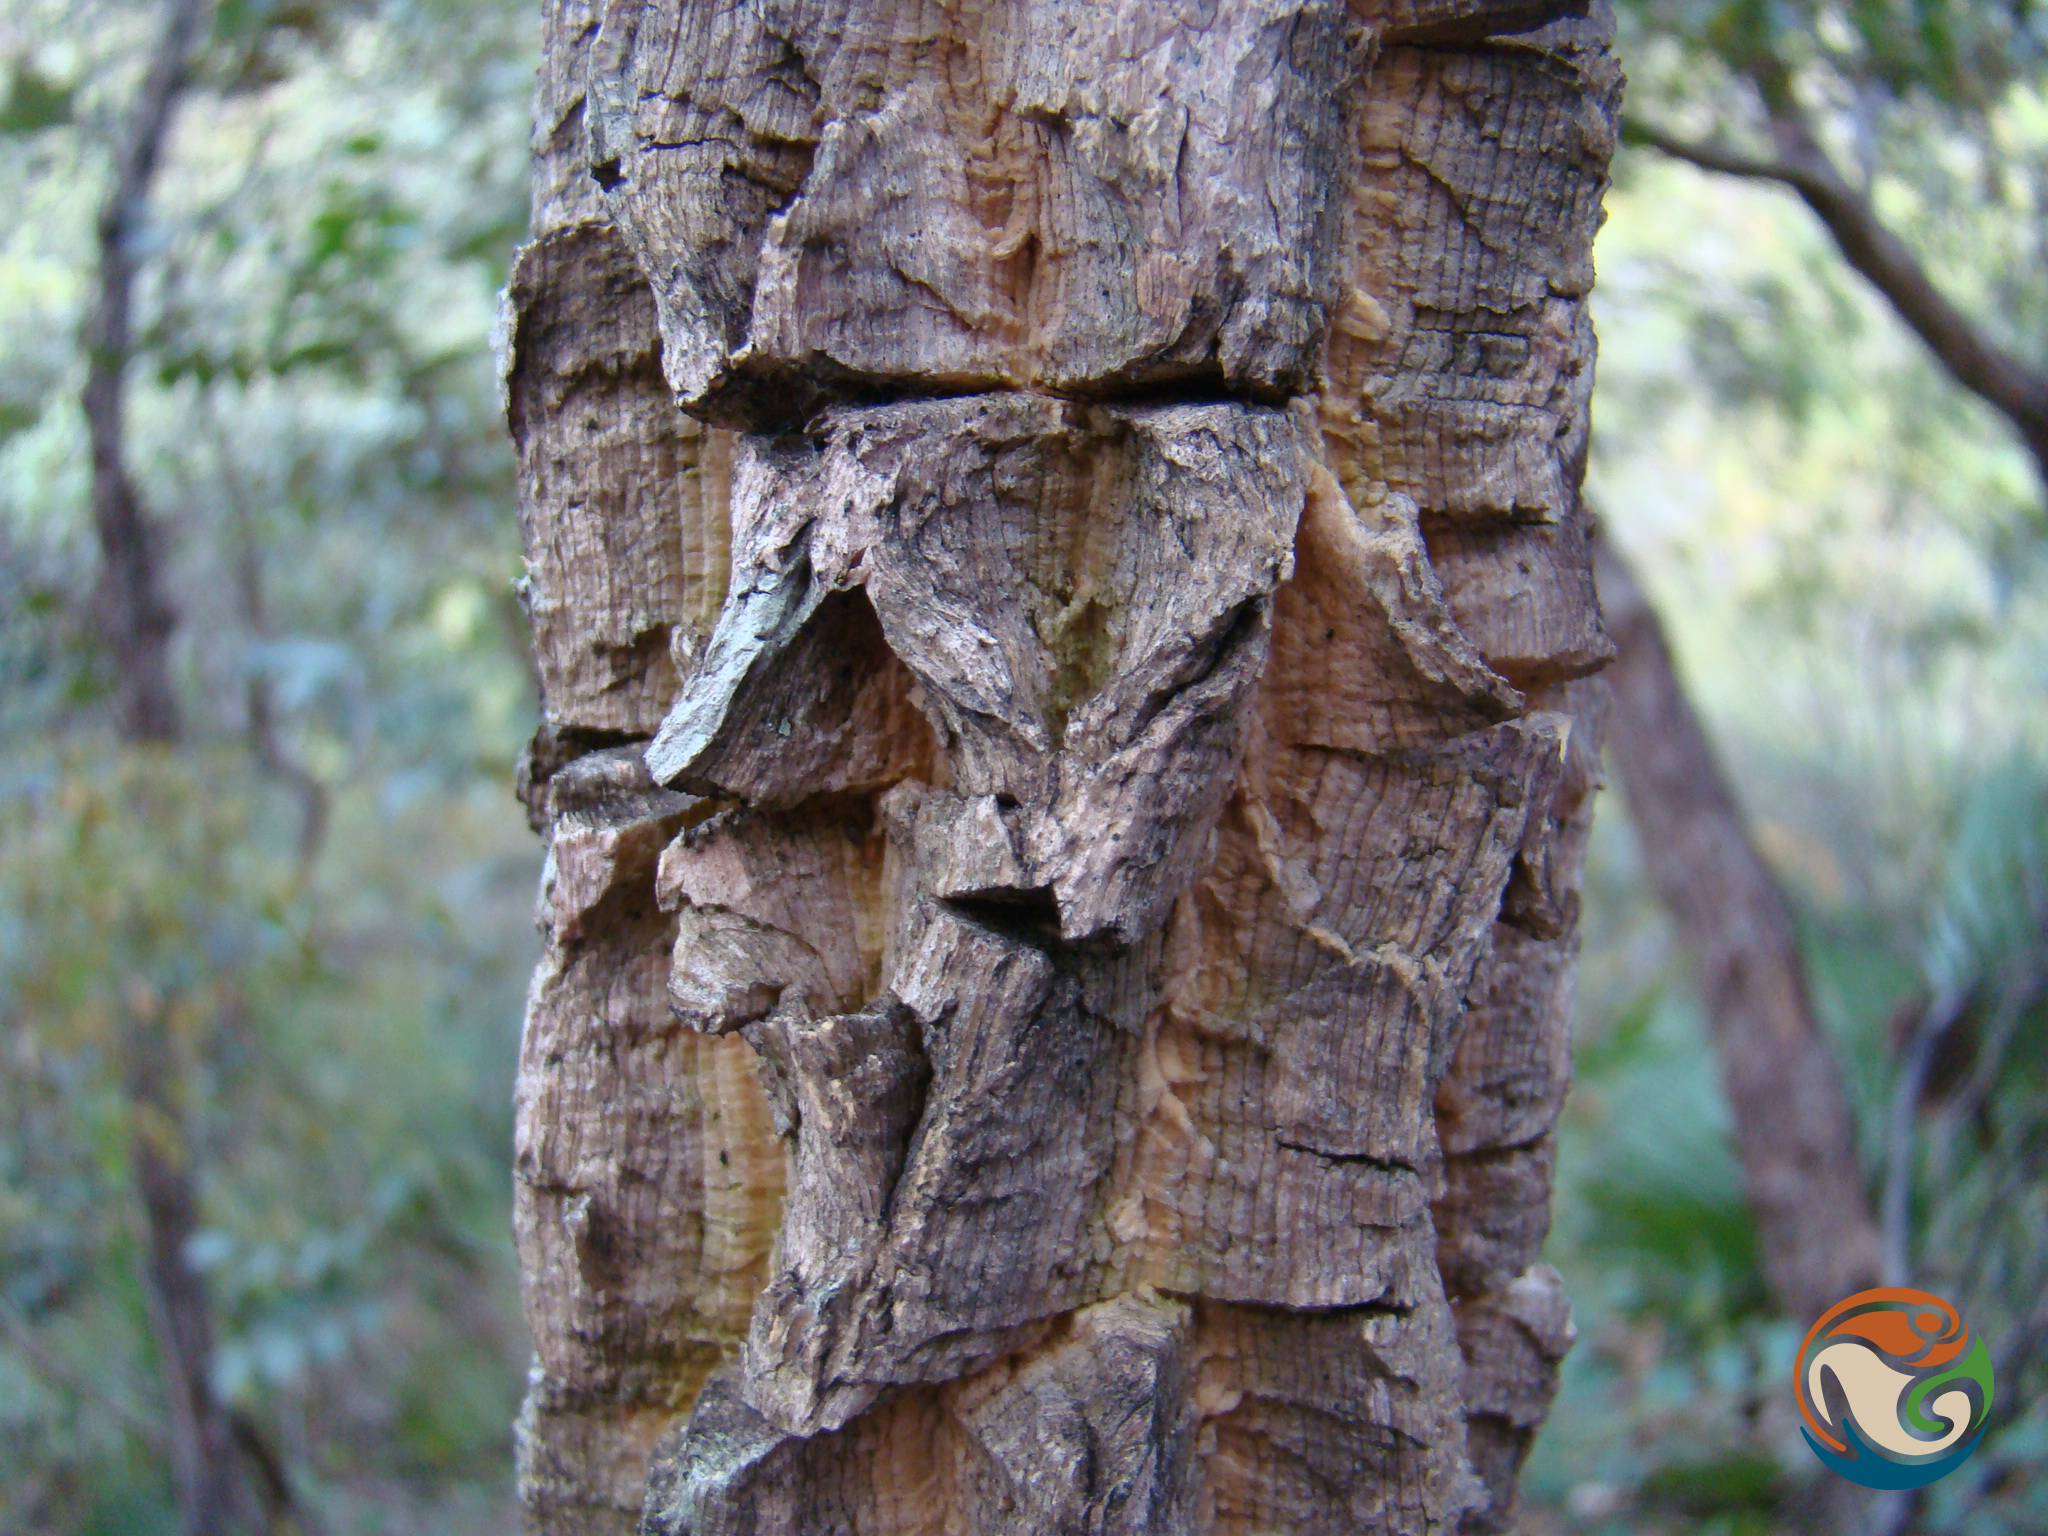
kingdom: Plantae
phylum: Tracheophyta
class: Magnoliopsida
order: Santalales
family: Opiliaceae
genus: Agonandra
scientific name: Agonandra racemosa
